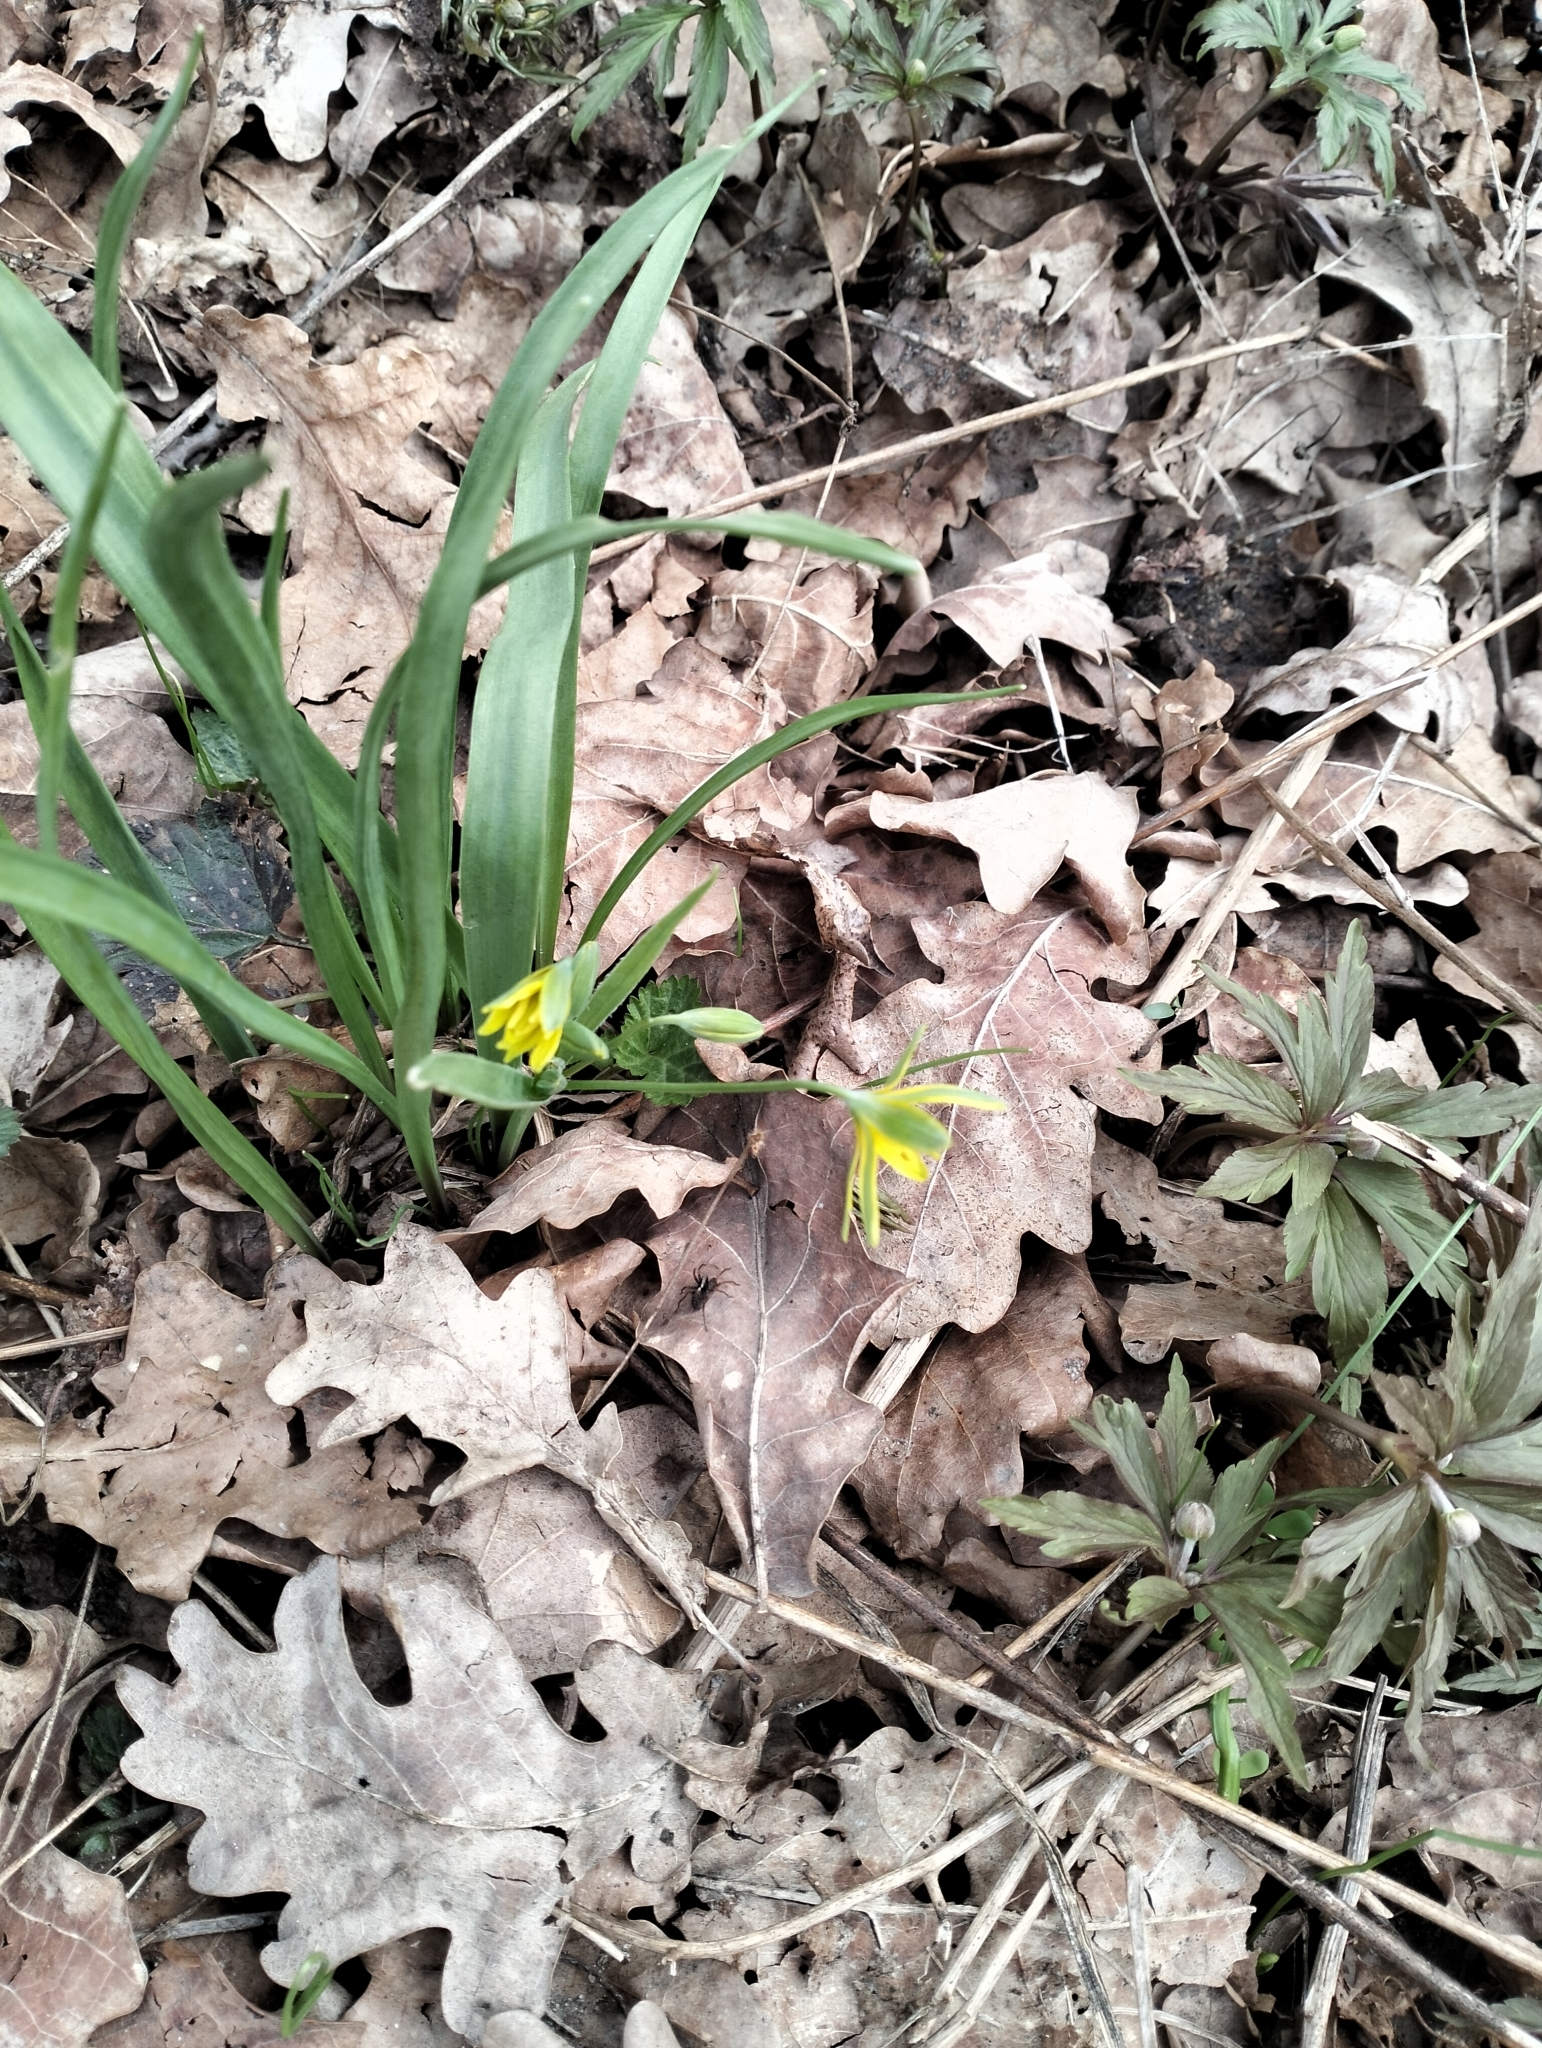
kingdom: Plantae
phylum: Tracheophyta
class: Liliopsida
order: Liliales
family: Liliaceae
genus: Gagea
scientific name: Gagea lutea
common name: Yellow star-of-bethlehem
